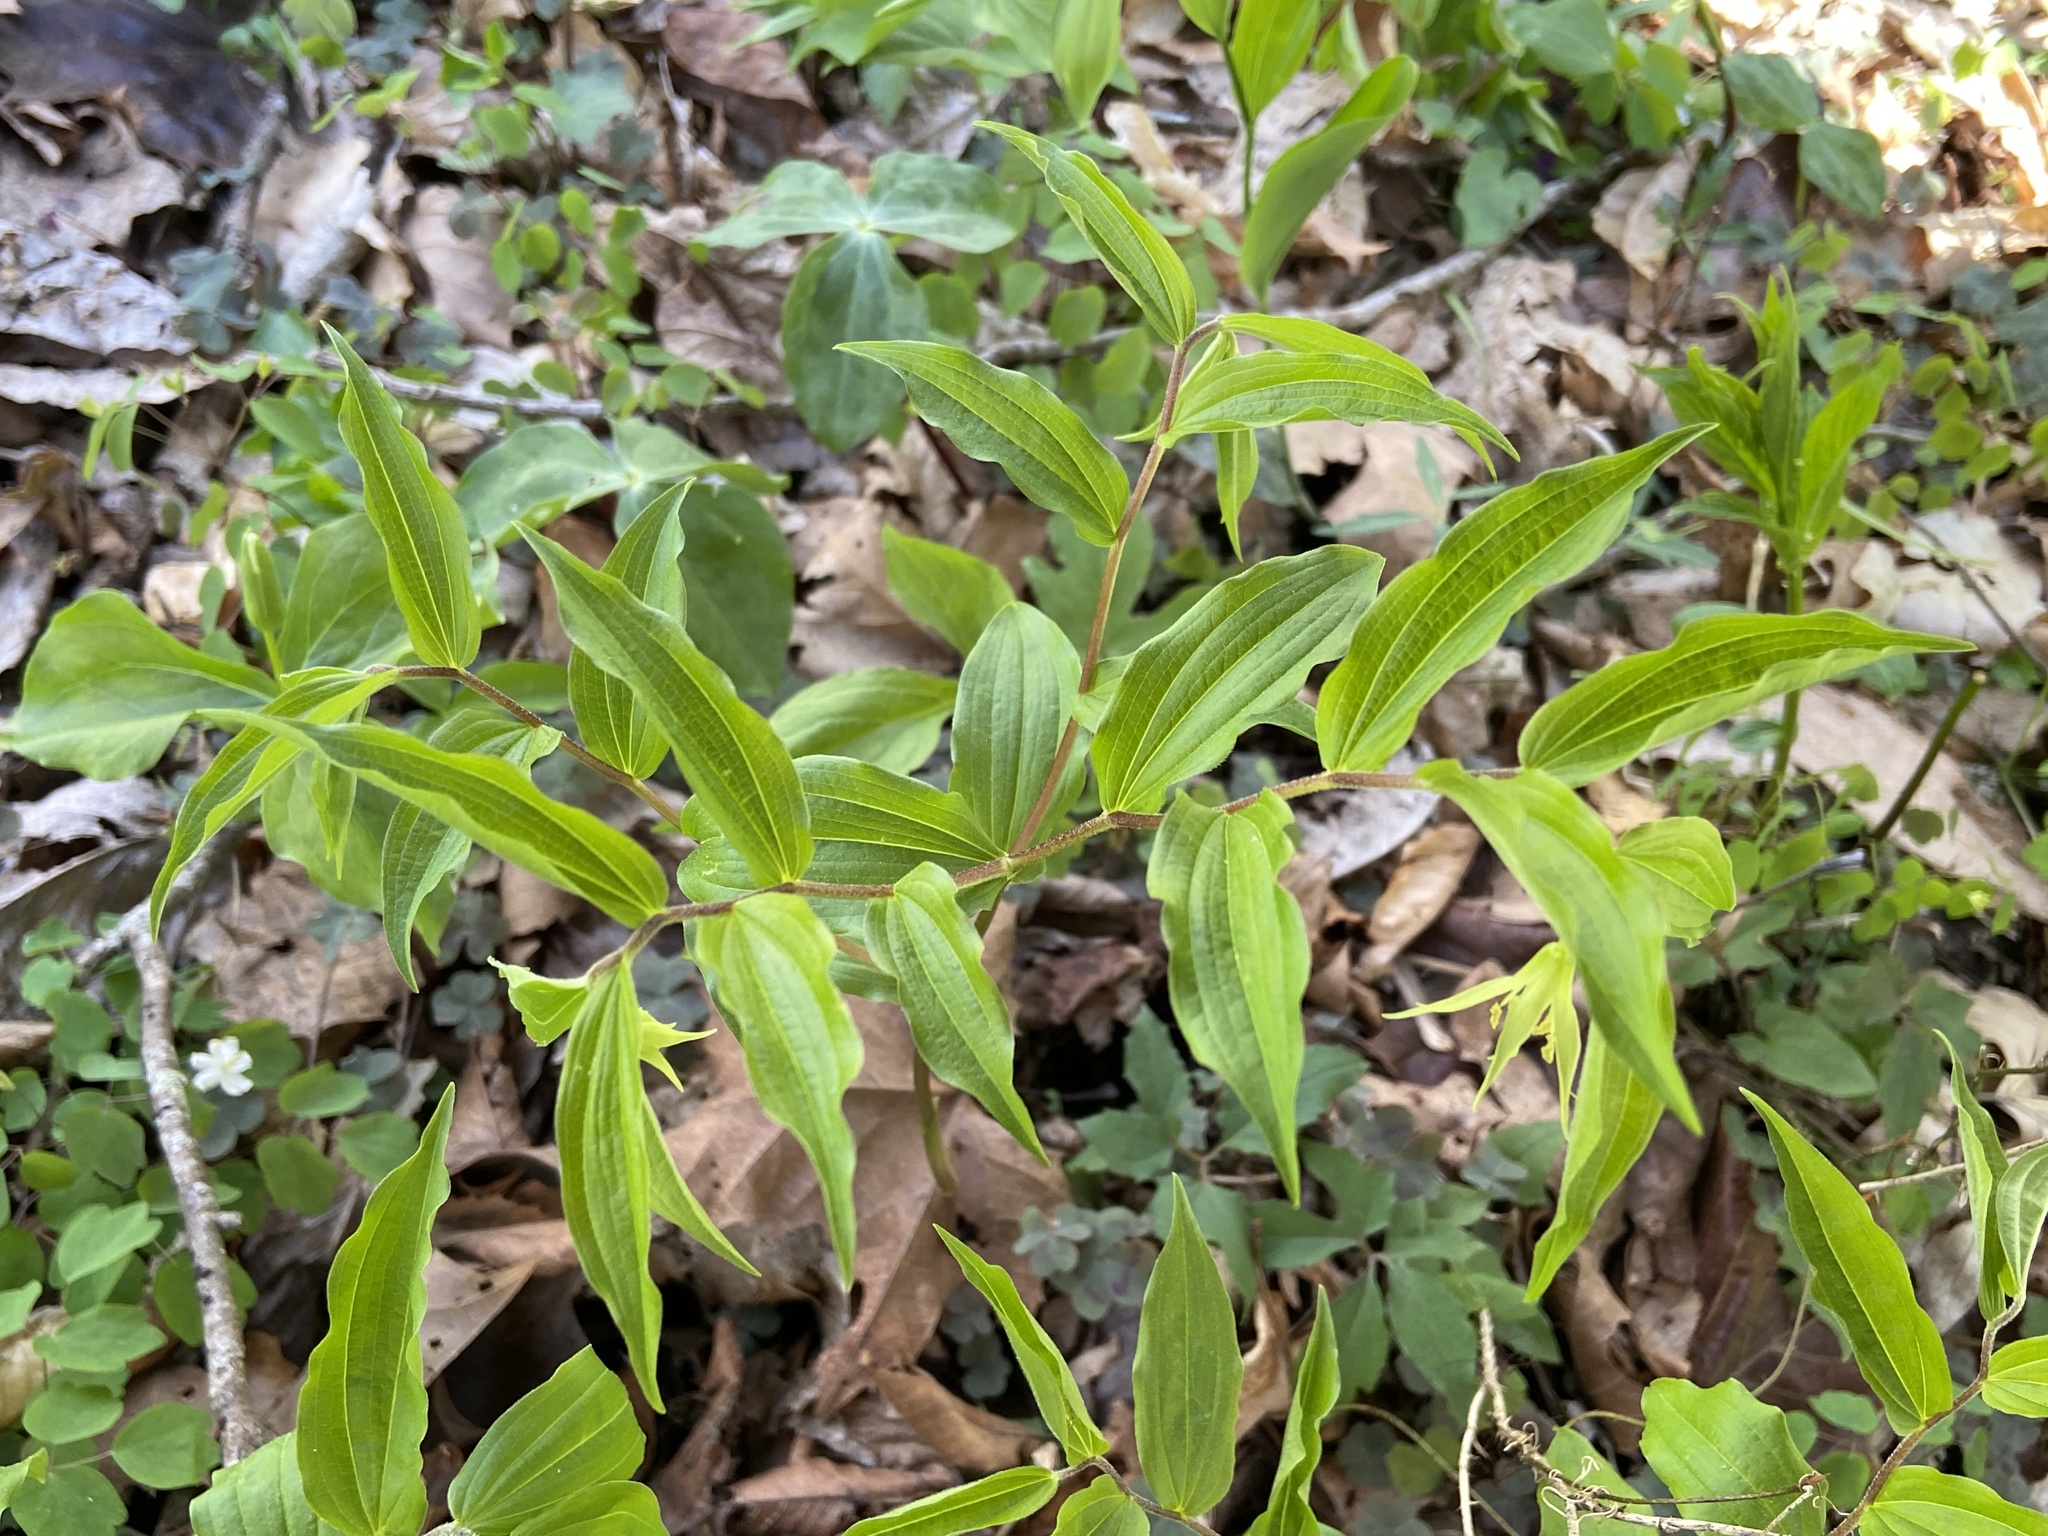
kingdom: Plantae
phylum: Tracheophyta
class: Liliopsida
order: Liliales
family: Liliaceae
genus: Prosartes
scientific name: Prosartes lanuginosa
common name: Hairy mandarin
